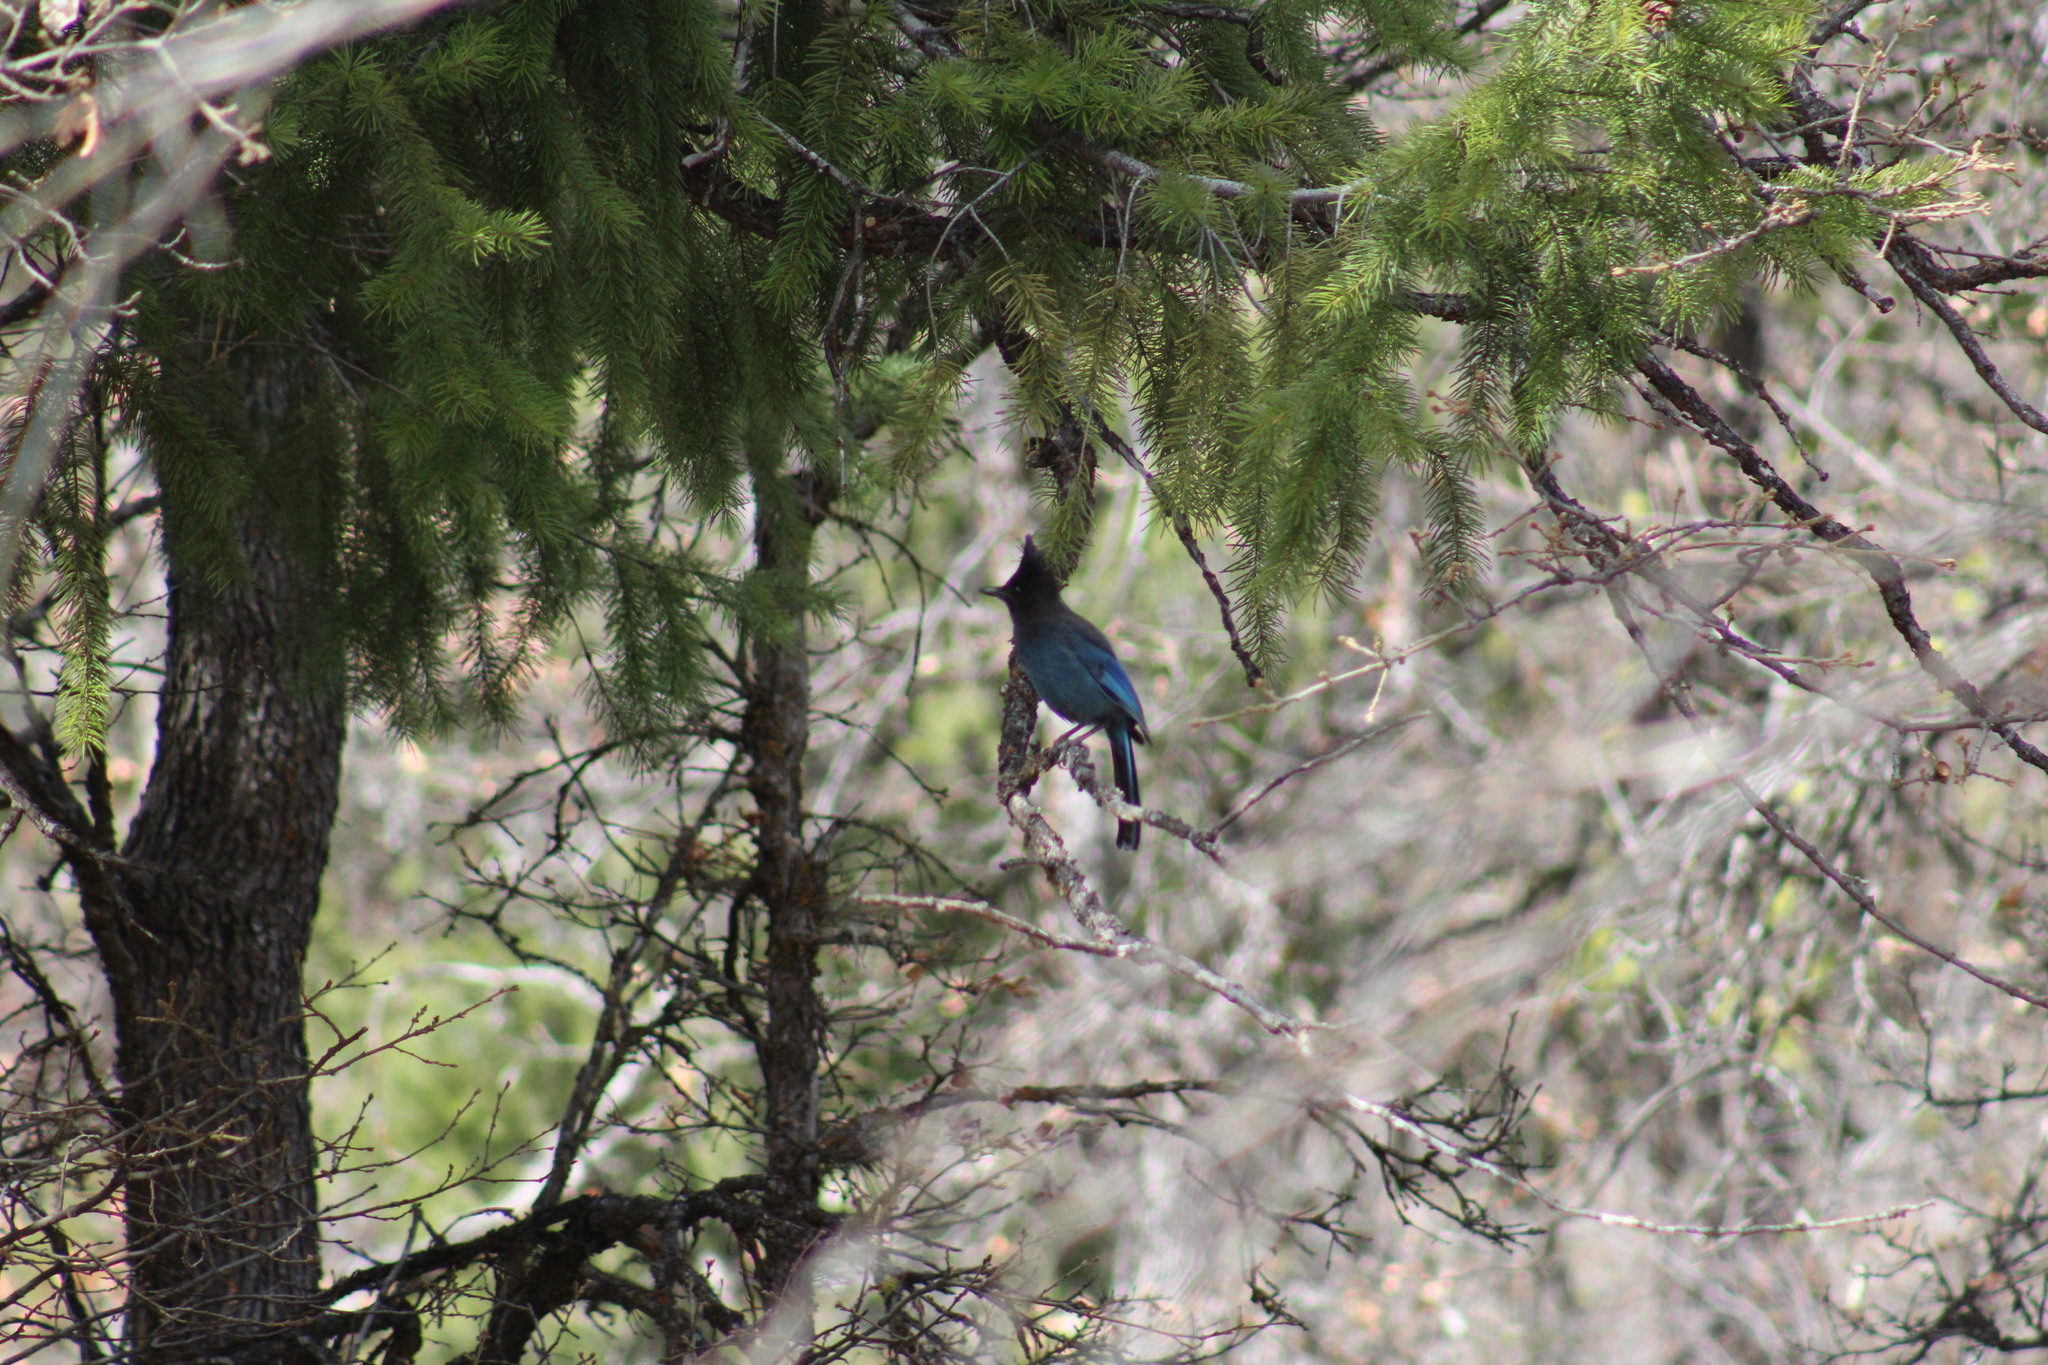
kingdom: Animalia
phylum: Chordata
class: Aves
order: Passeriformes
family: Corvidae
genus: Cyanocitta
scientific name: Cyanocitta stelleri
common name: Steller's jay
